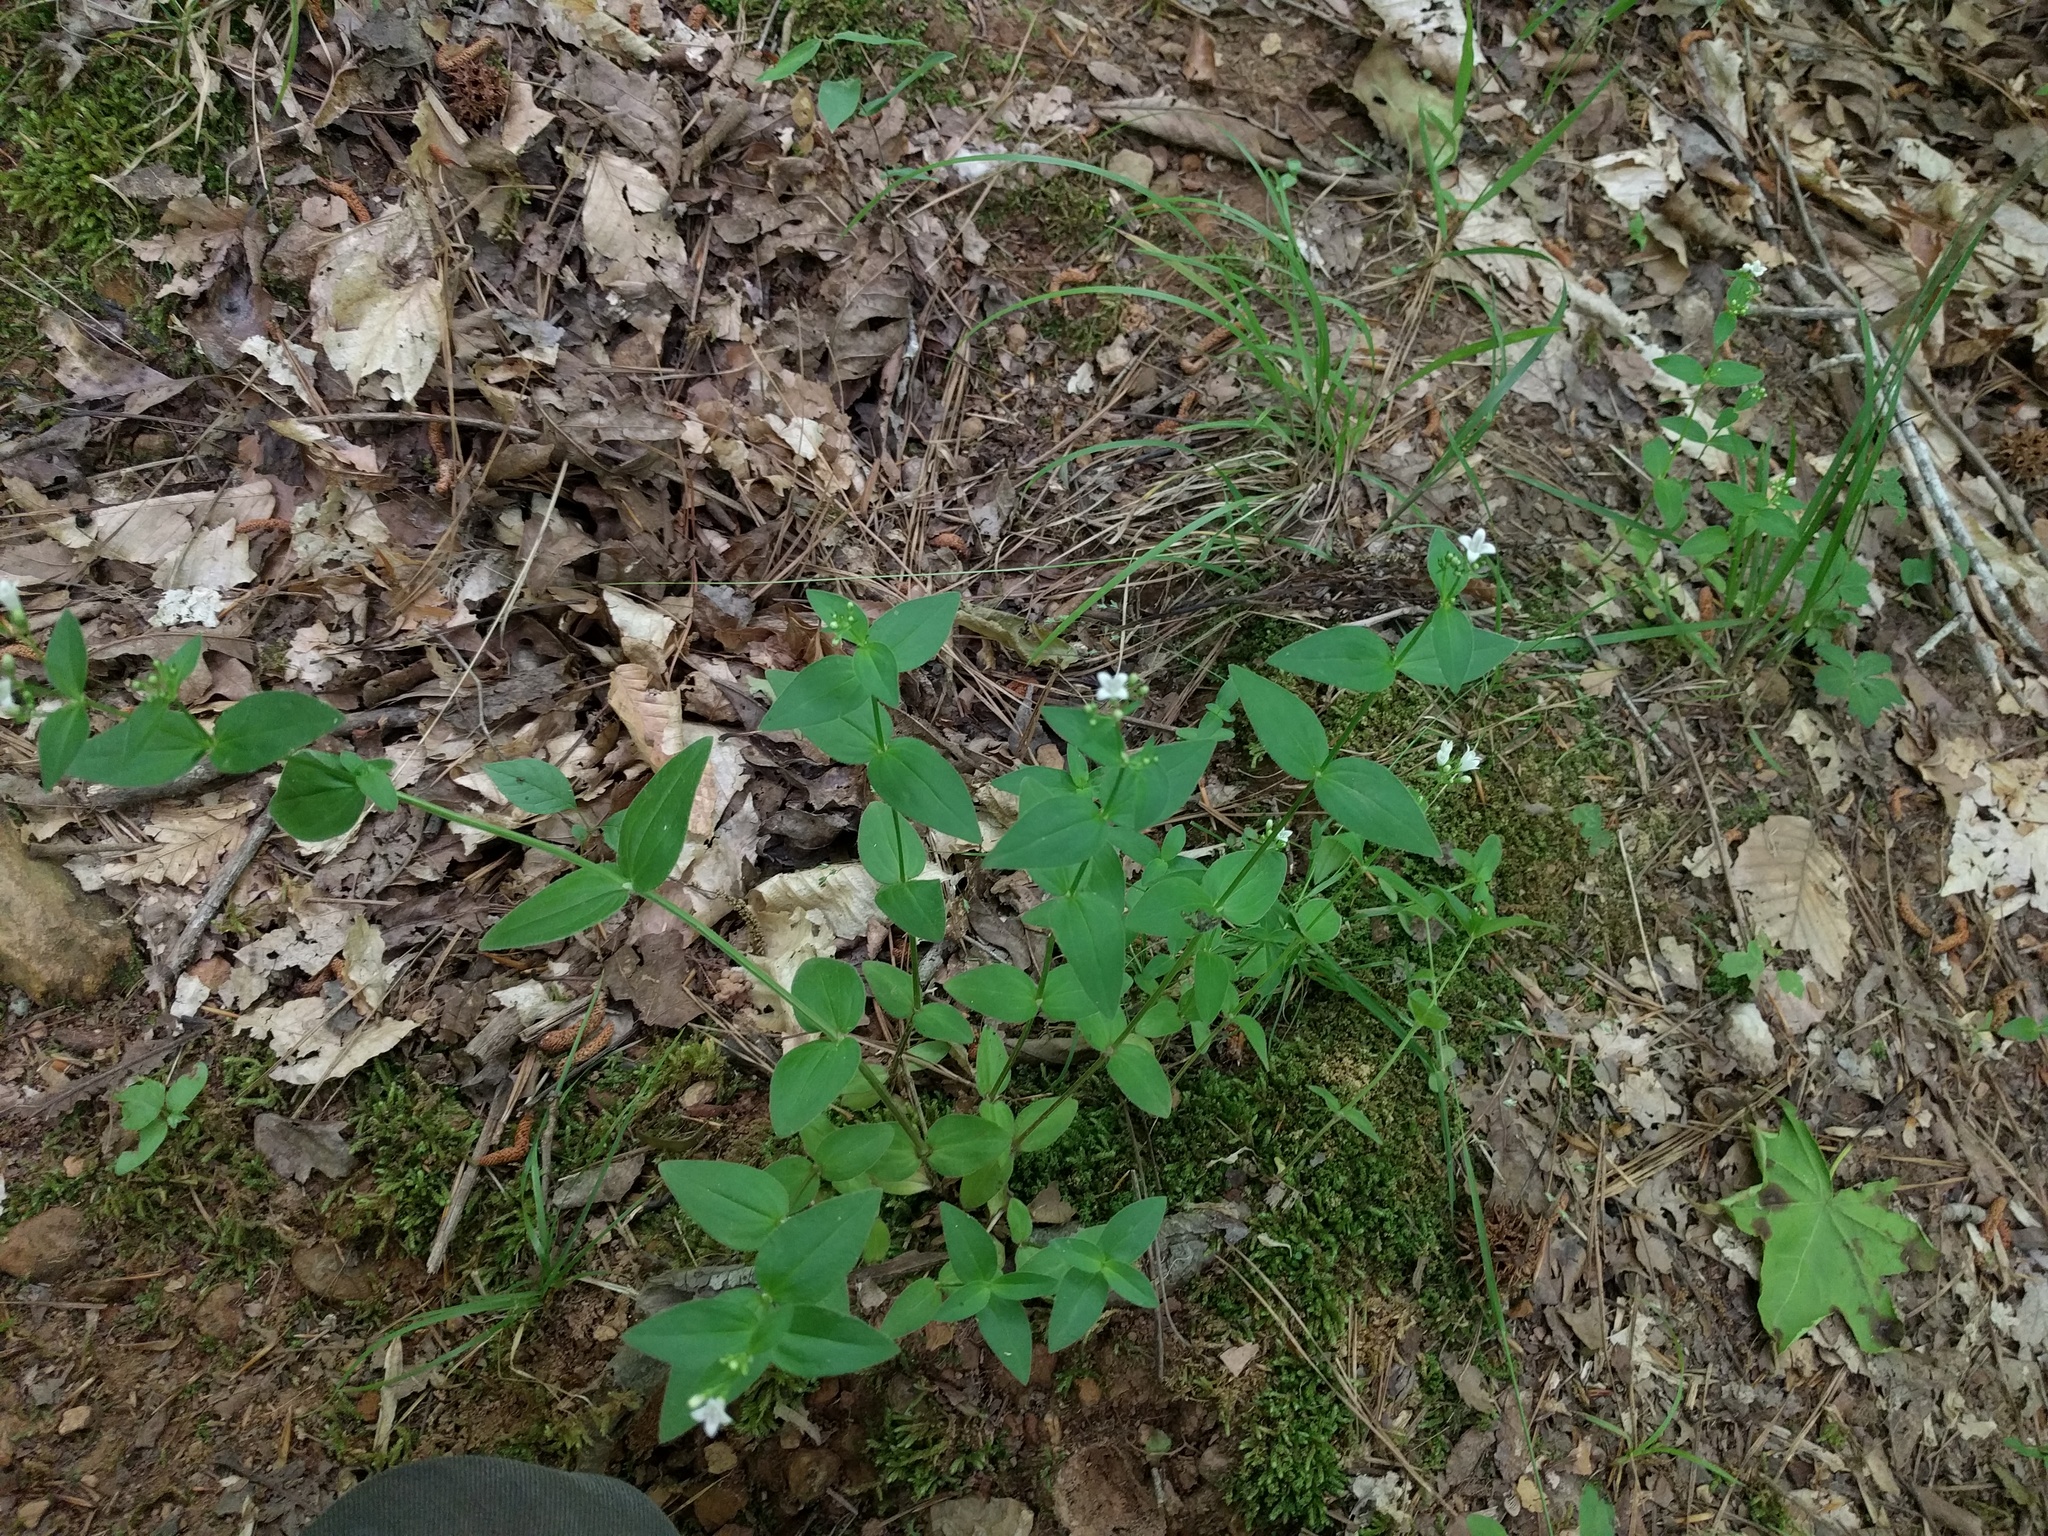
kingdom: Plantae
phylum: Tracheophyta
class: Magnoliopsida
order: Gentianales
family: Rubiaceae
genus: Houstonia
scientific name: Houstonia purpurea
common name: Summer bluet
